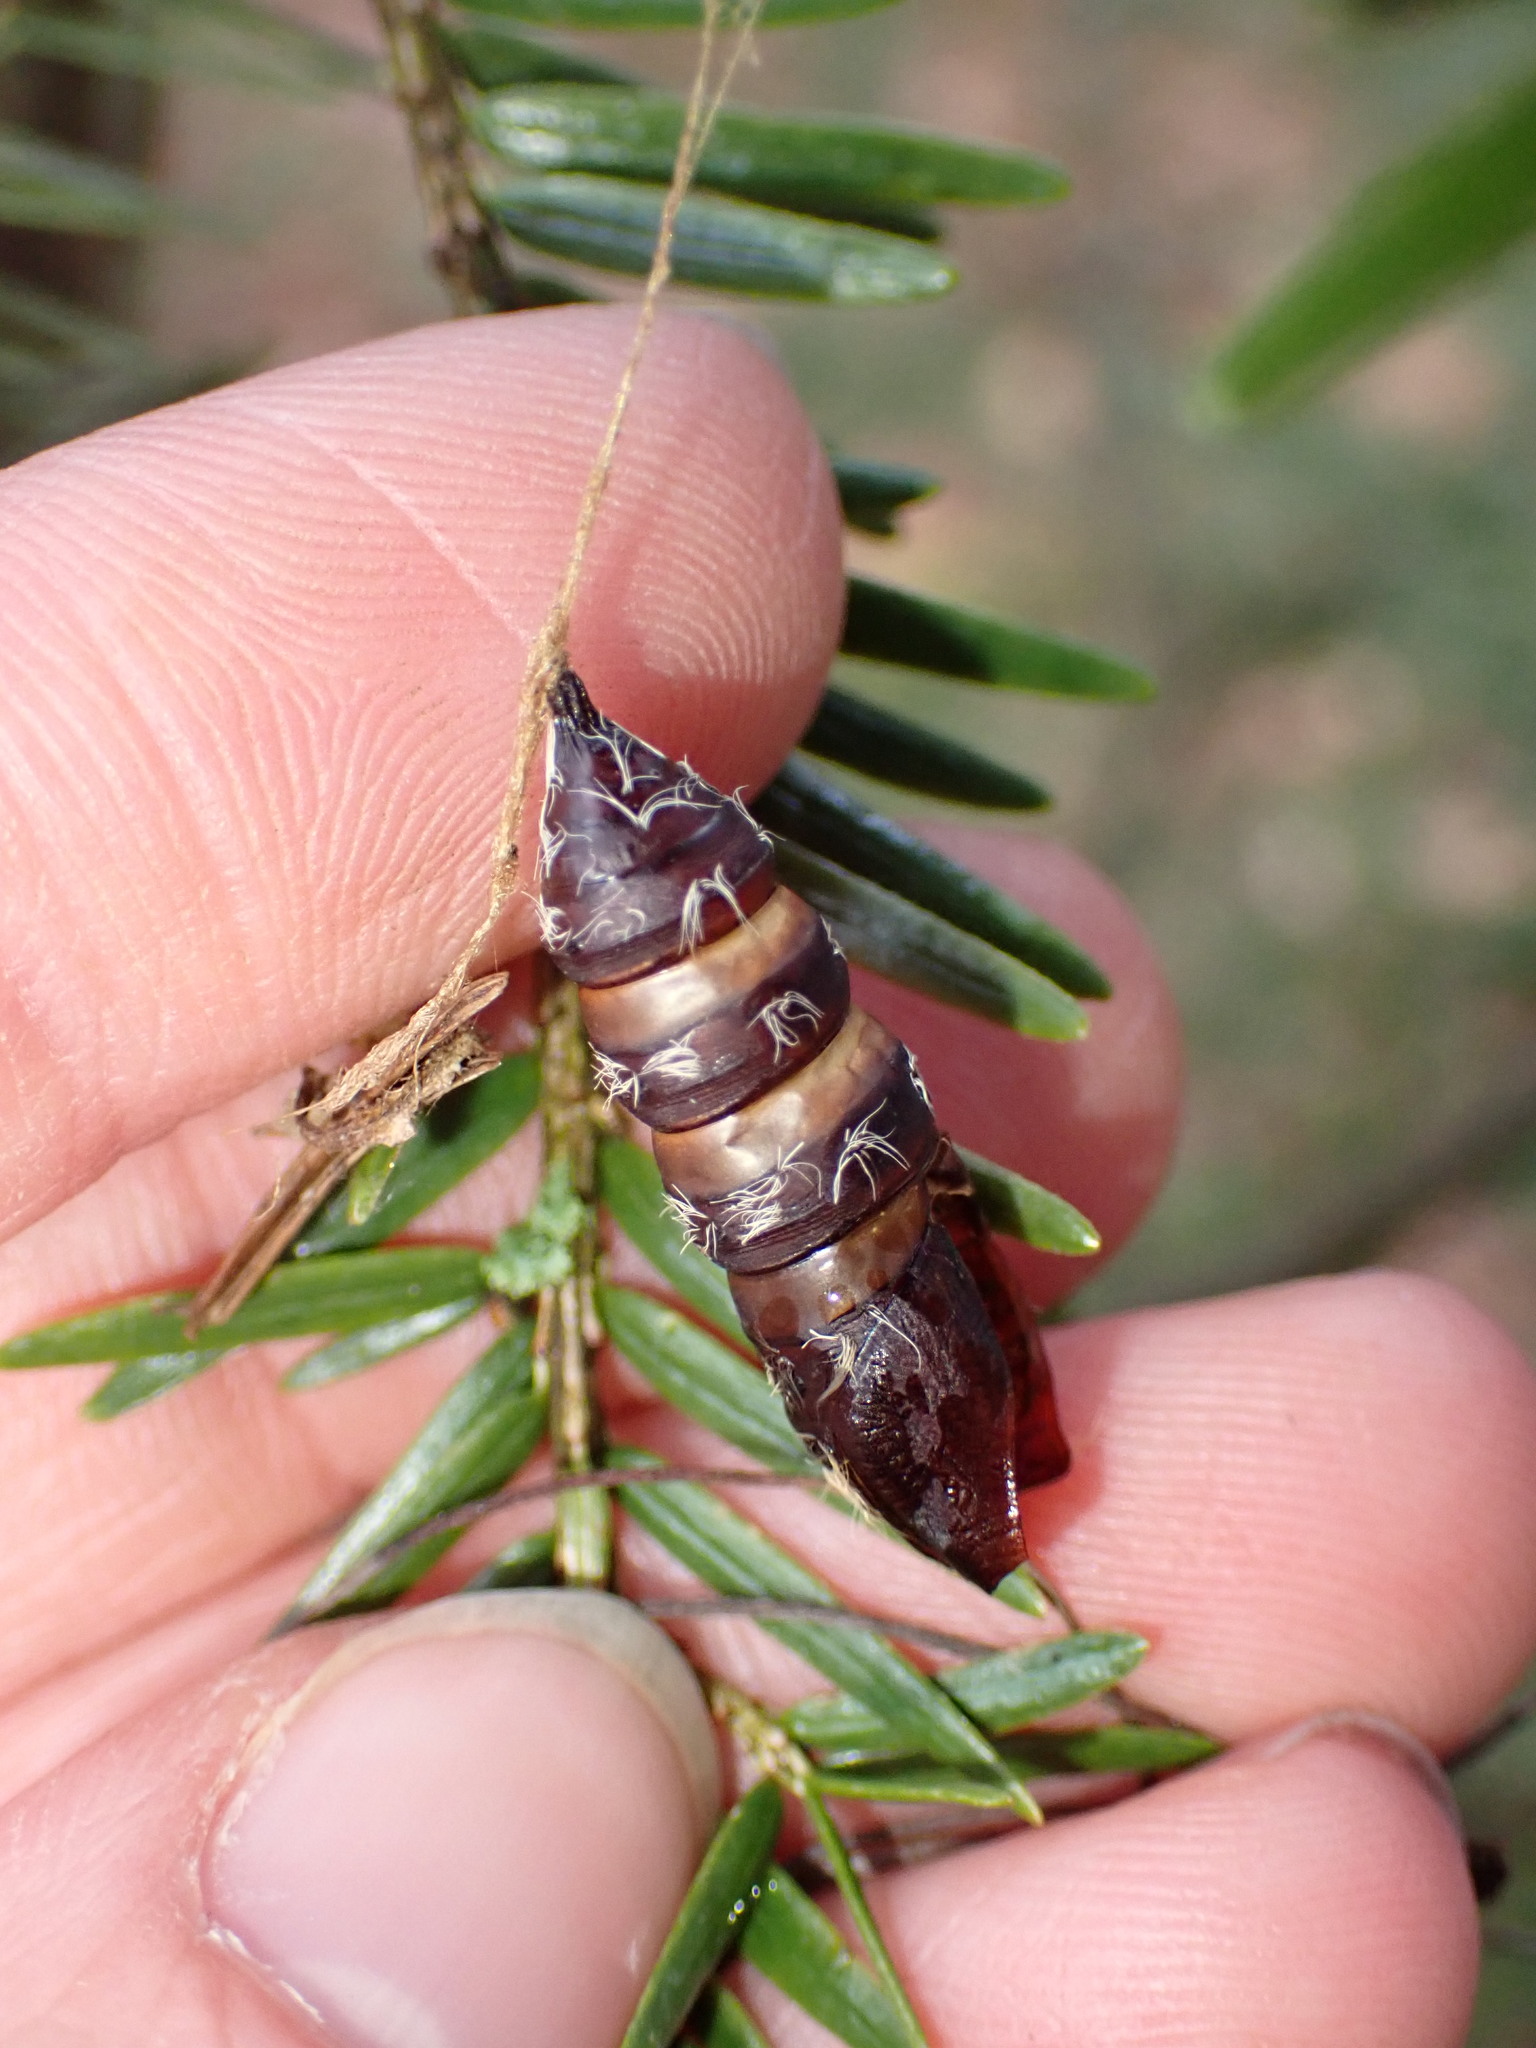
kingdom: Animalia
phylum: Arthropoda
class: Insecta
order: Lepidoptera
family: Erebidae
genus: Lymantria
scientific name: Lymantria dispar
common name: Gypsy moth
